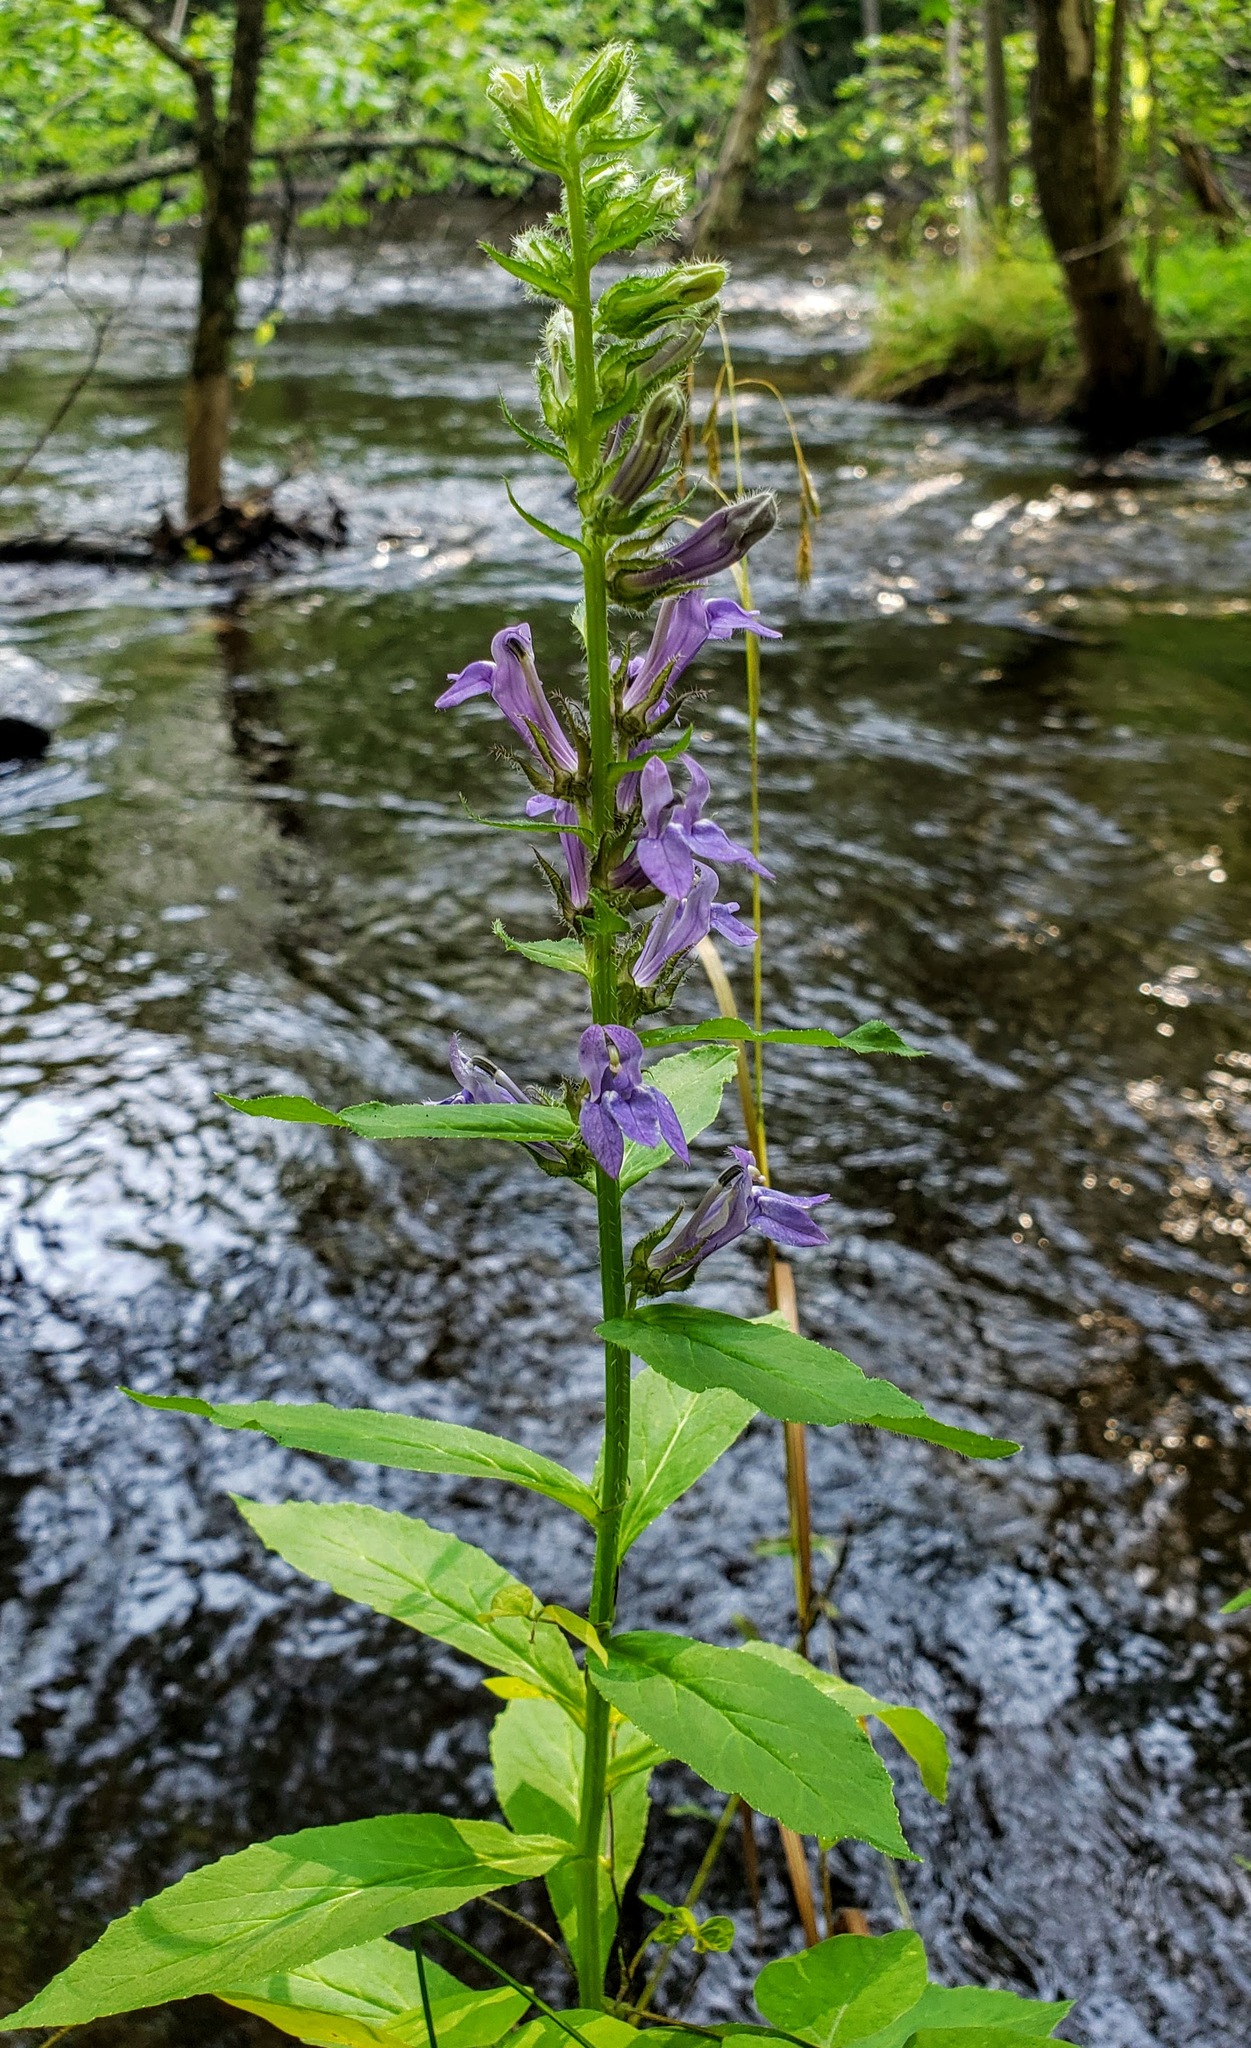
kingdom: Plantae
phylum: Tracheophyta
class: Magnoliopsida
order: Asterales
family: Campanulaceae
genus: Lobelia
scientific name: Lobelia siphilitica
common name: Great lobelia
